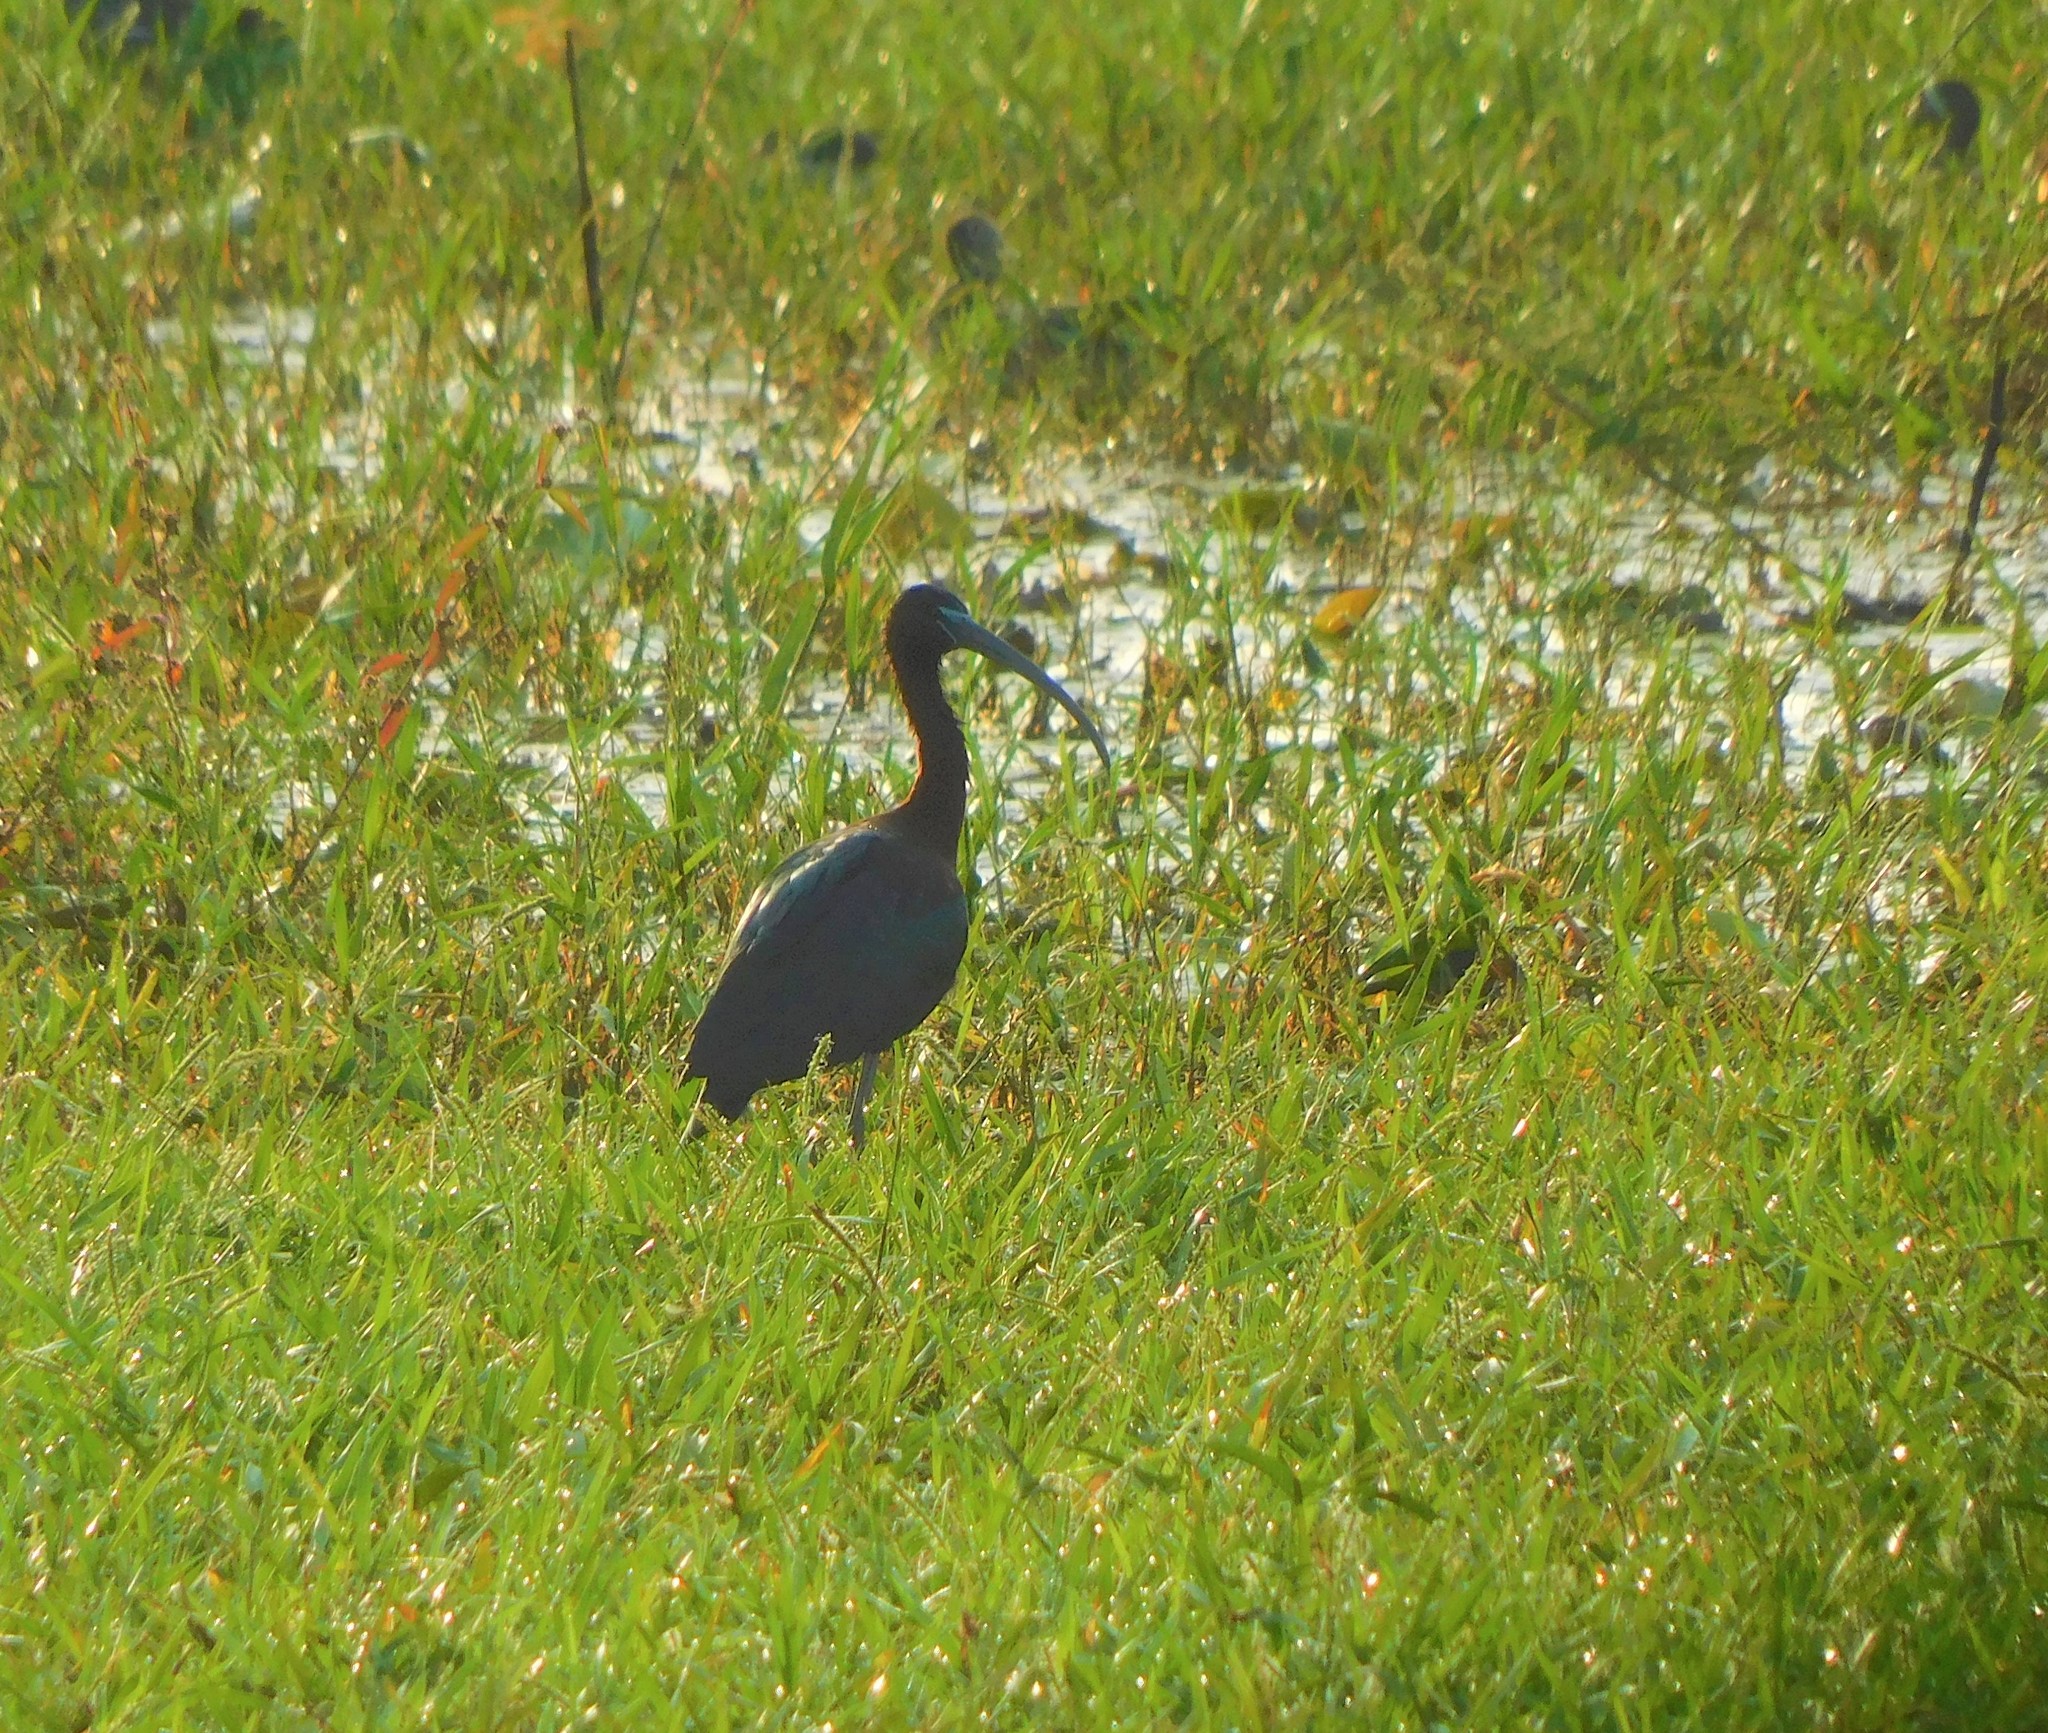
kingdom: Animalia
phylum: Chordata
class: Aves
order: Pelecaniformes
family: Threskiornithidae
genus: Plegadis
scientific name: Plegadis falcinellus
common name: Glossy ibis
